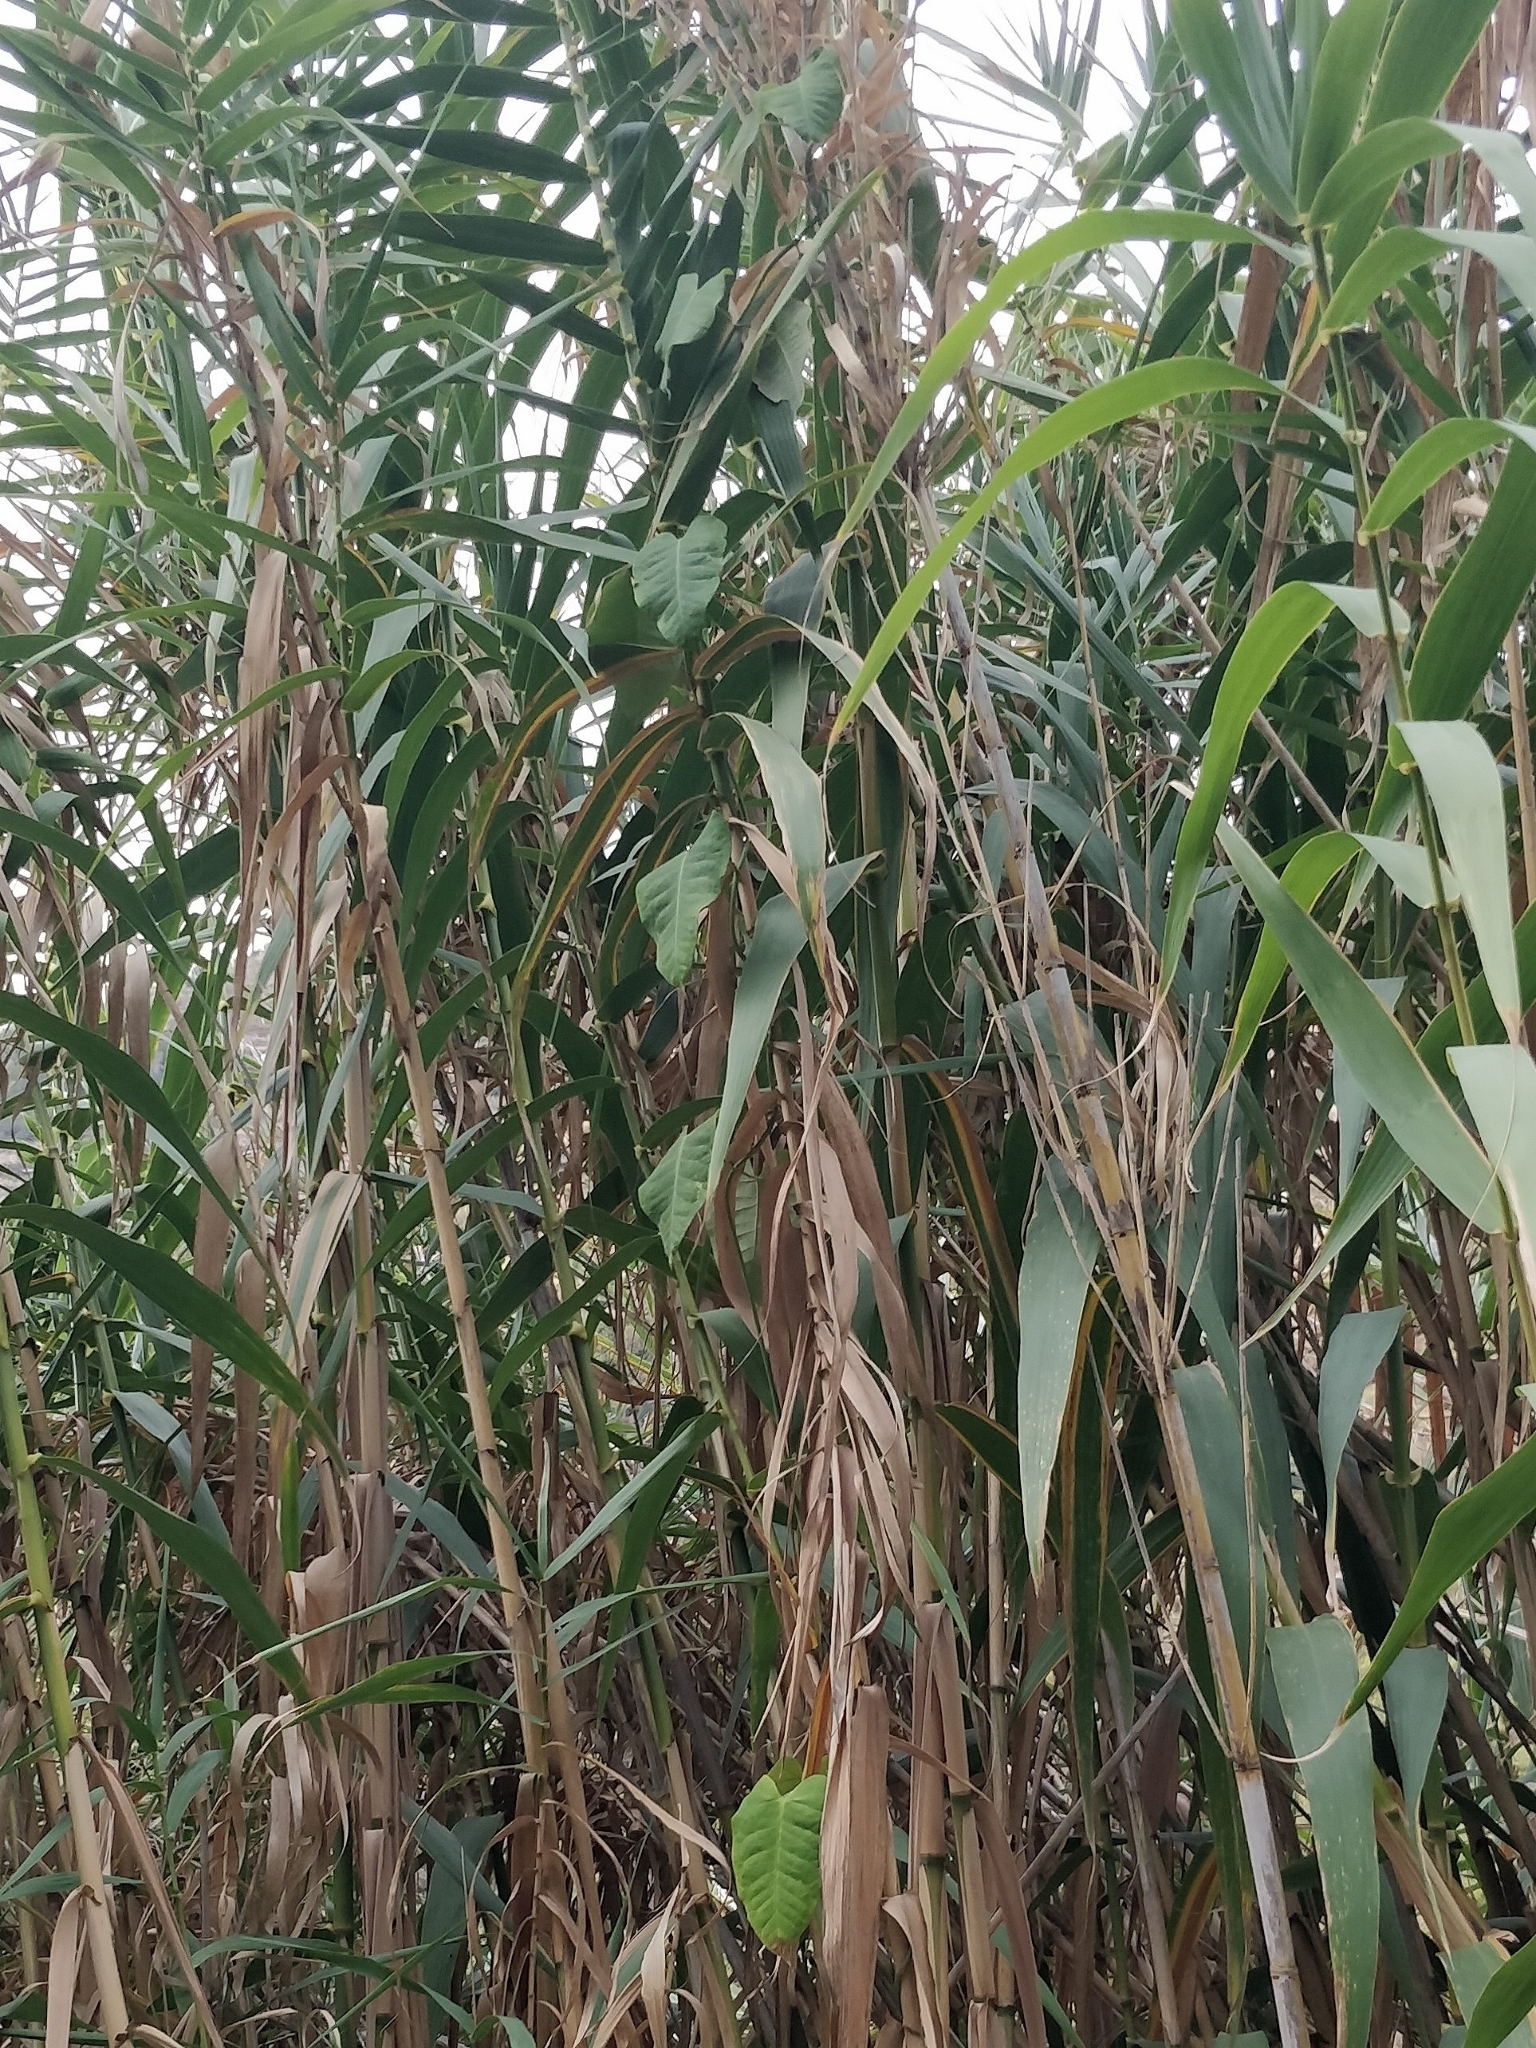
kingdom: Plantae
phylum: Tracheophyta
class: Magnoliopsida
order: Gentianales
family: Apocynaceae
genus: Araujia
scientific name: Araujia sericifera
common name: White bladderflower
